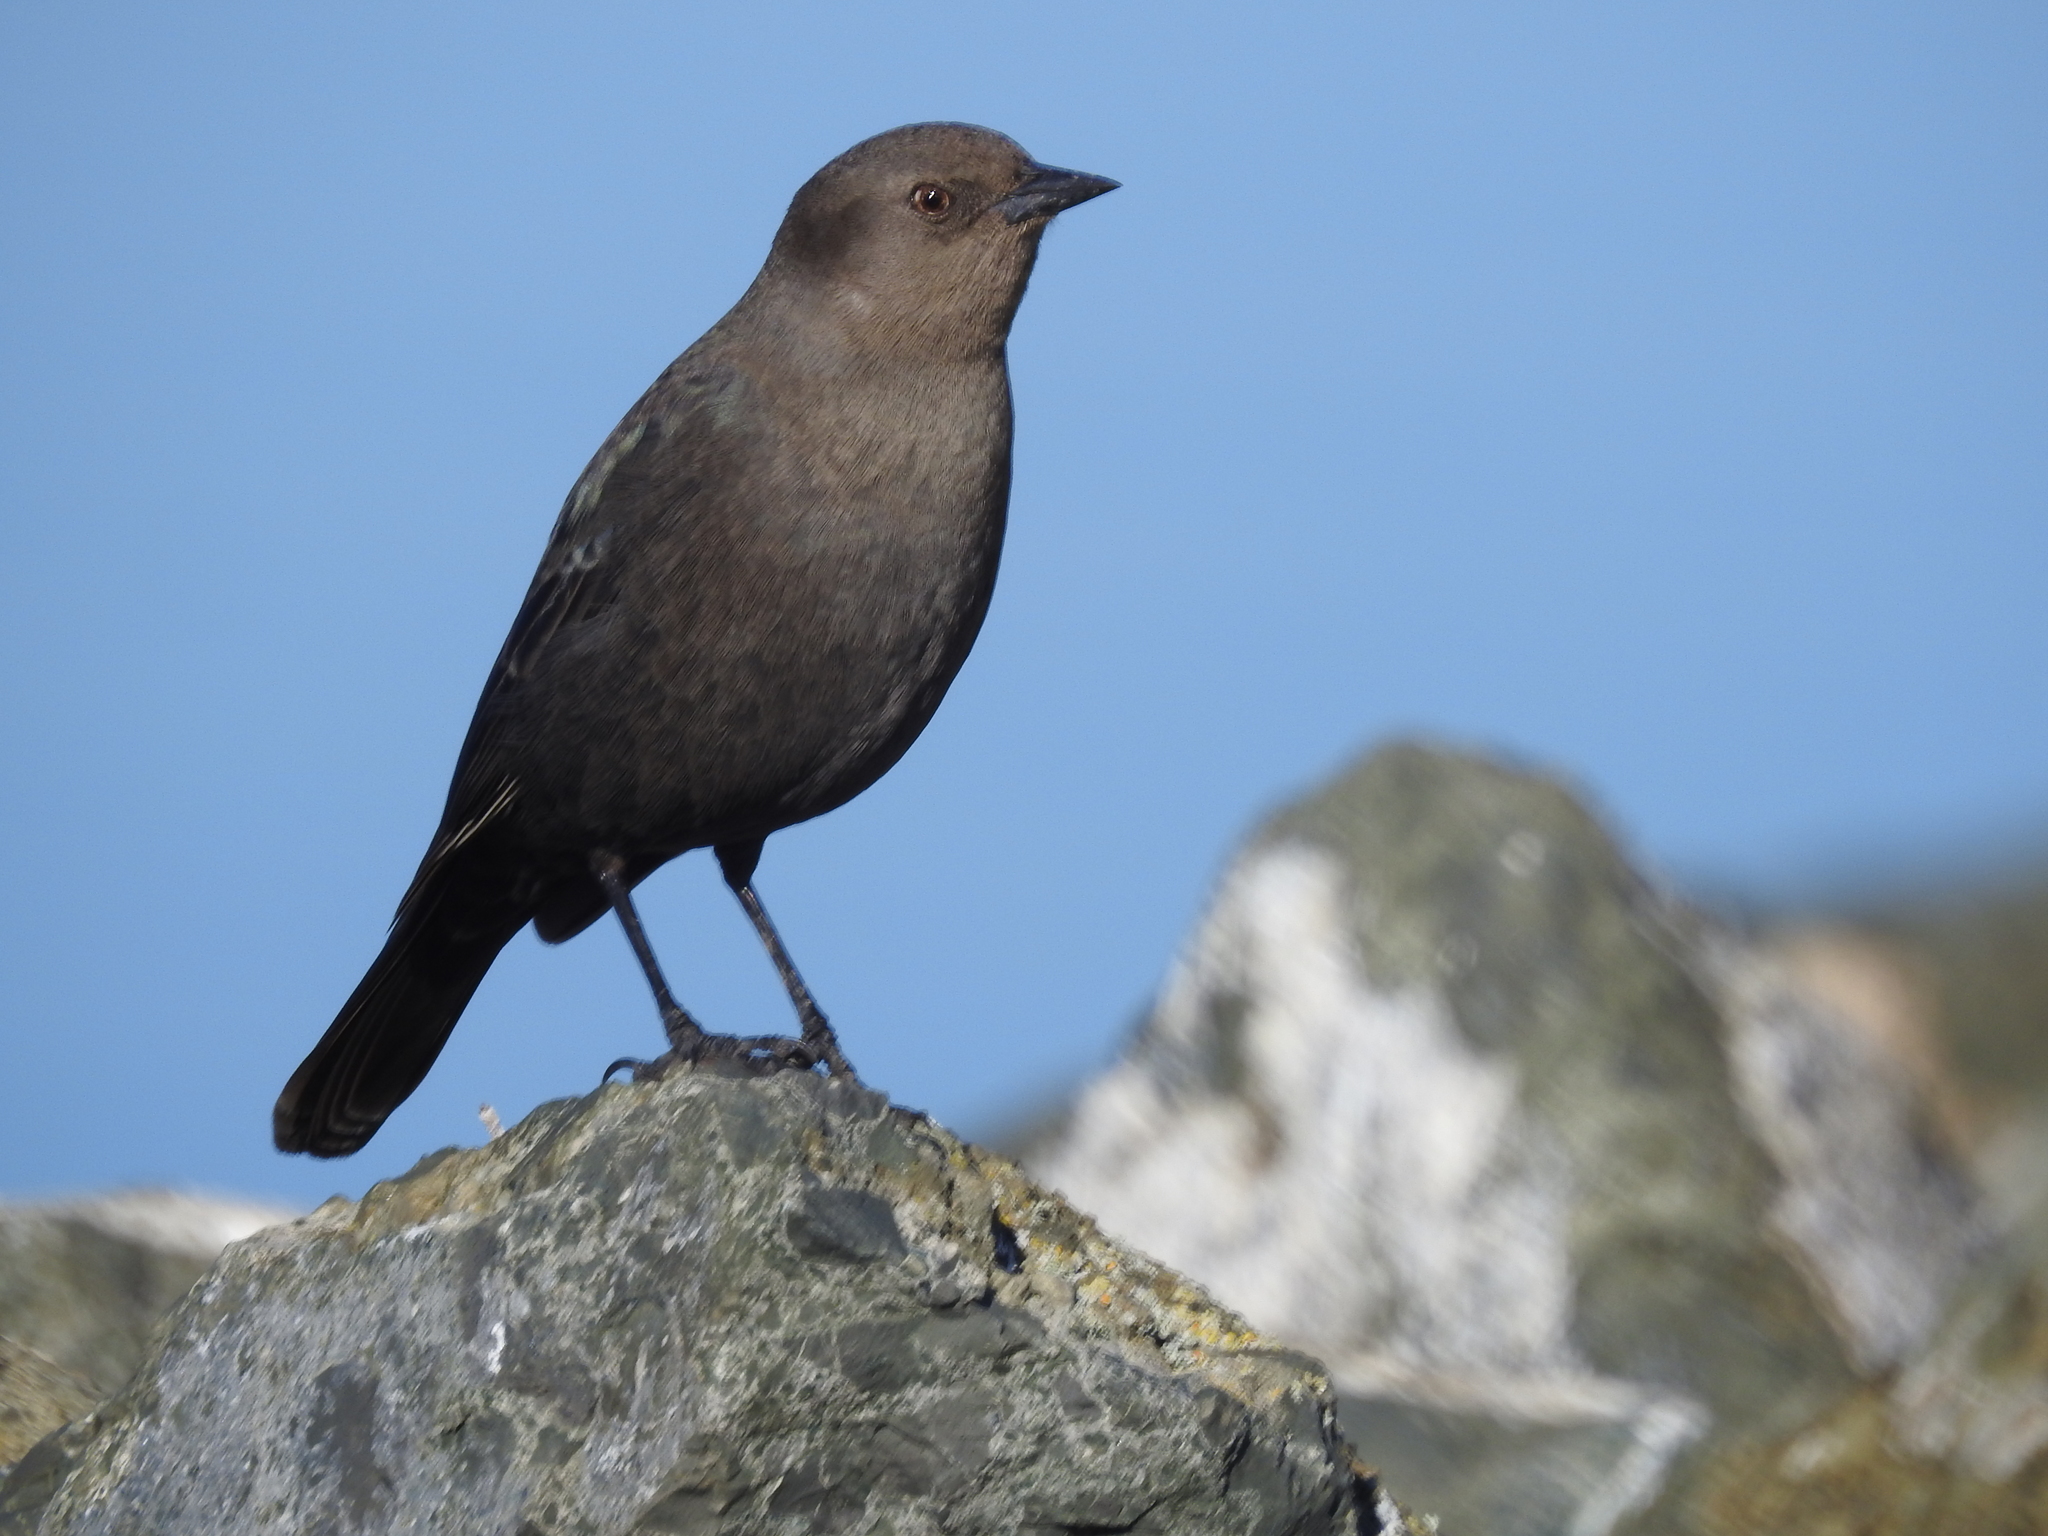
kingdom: Animalia
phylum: Chordata
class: Aves
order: Passeriformes
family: Icteridae
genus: Euphagus
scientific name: Euphagus cyanocephalus
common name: Brewer's blackbird
